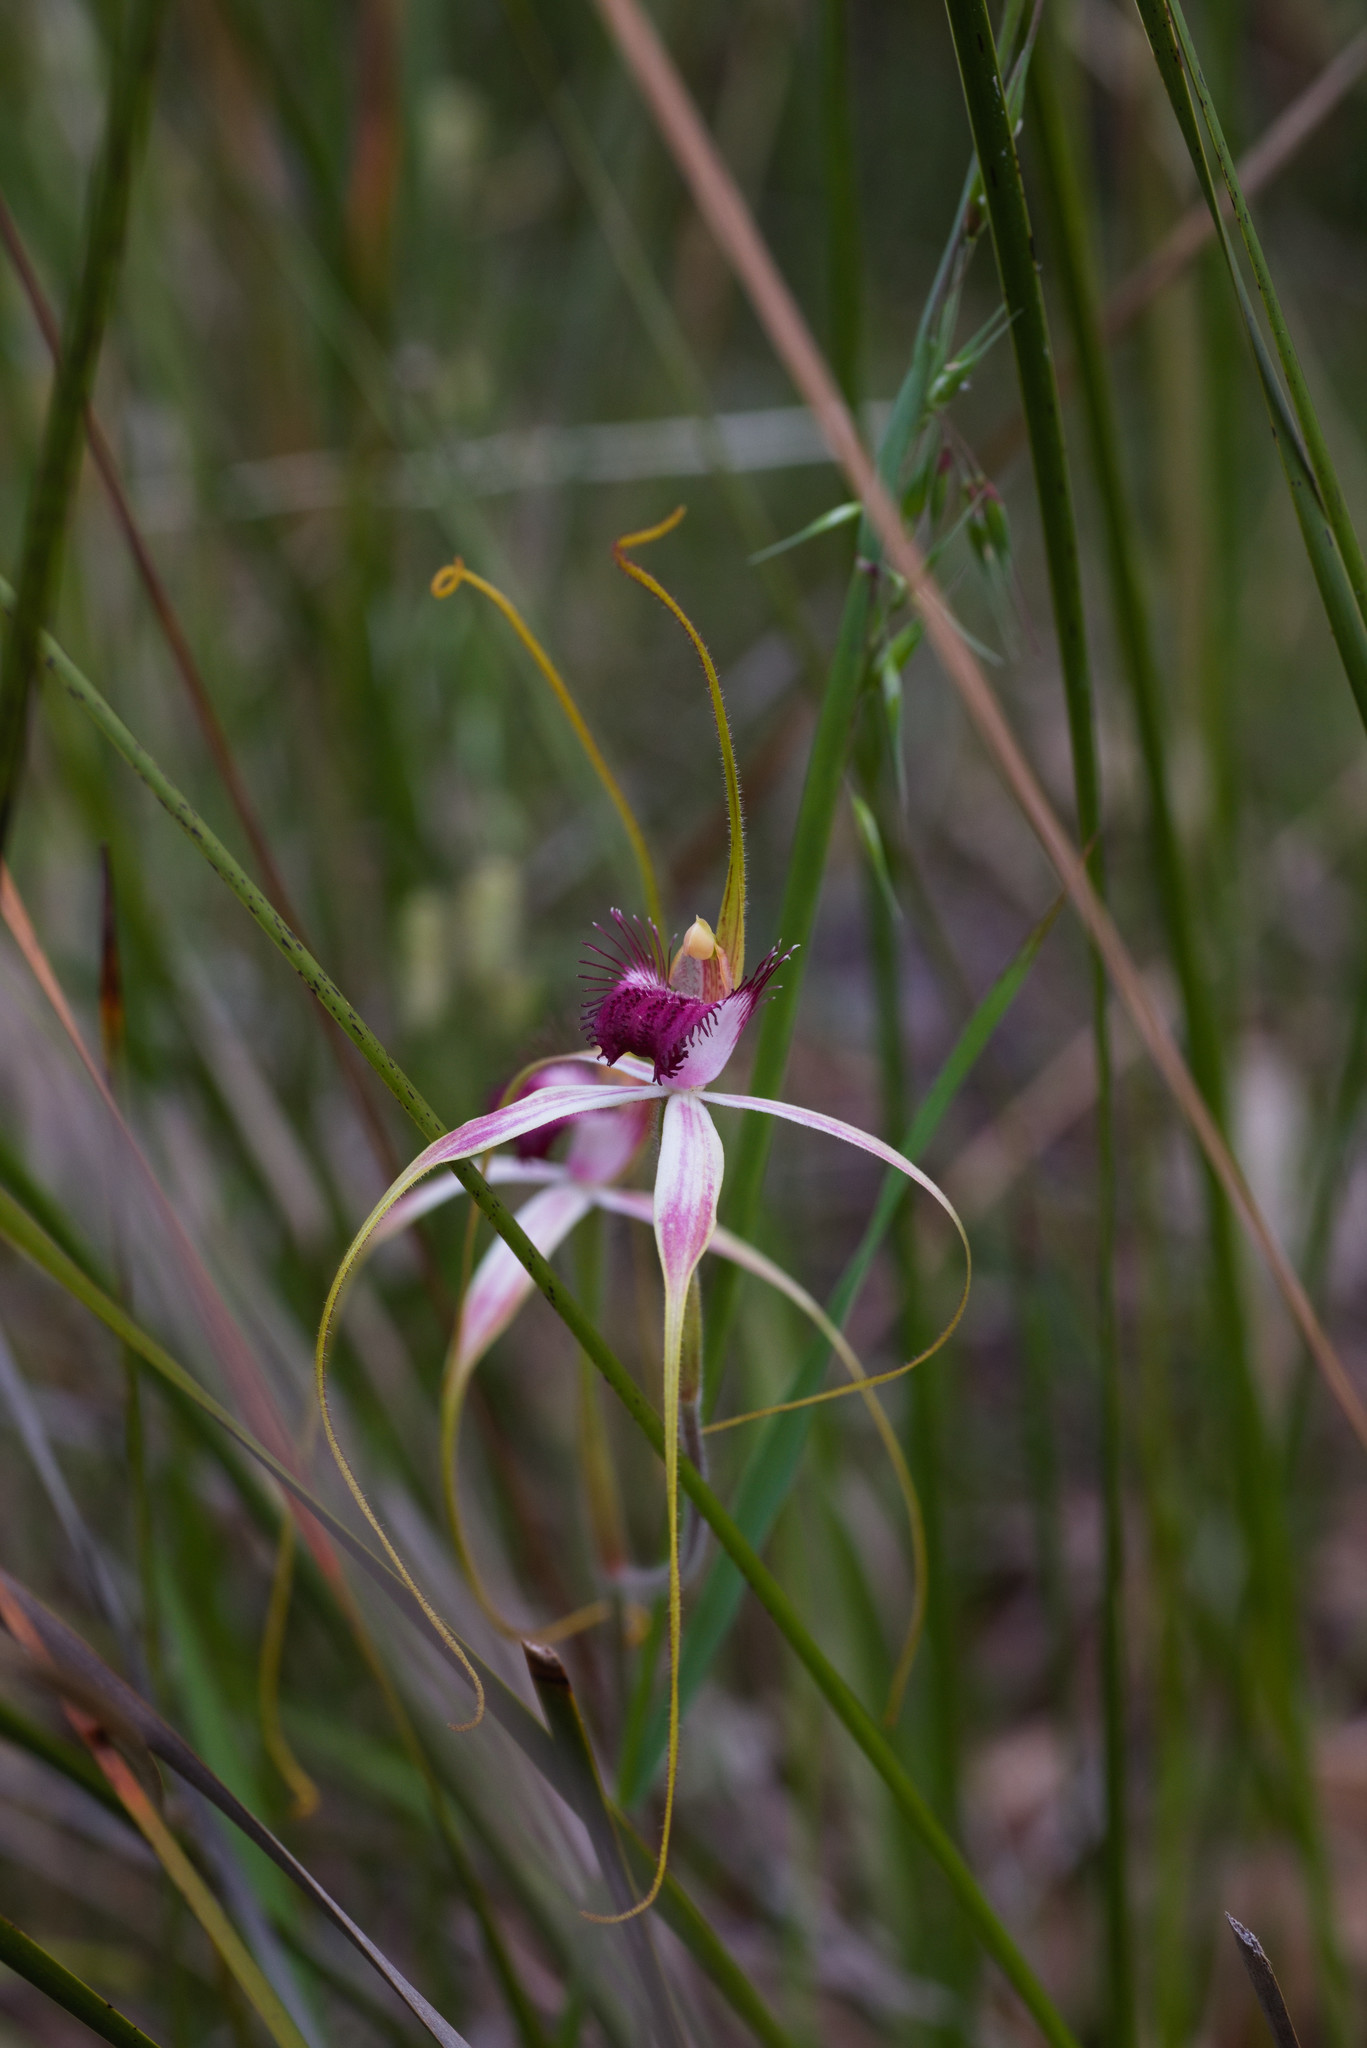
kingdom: Plantae
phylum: Tracheophyta
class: Liliopsida
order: Asparagales
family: Orchidaceae
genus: Caladenia
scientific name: Caladenia arenicola
